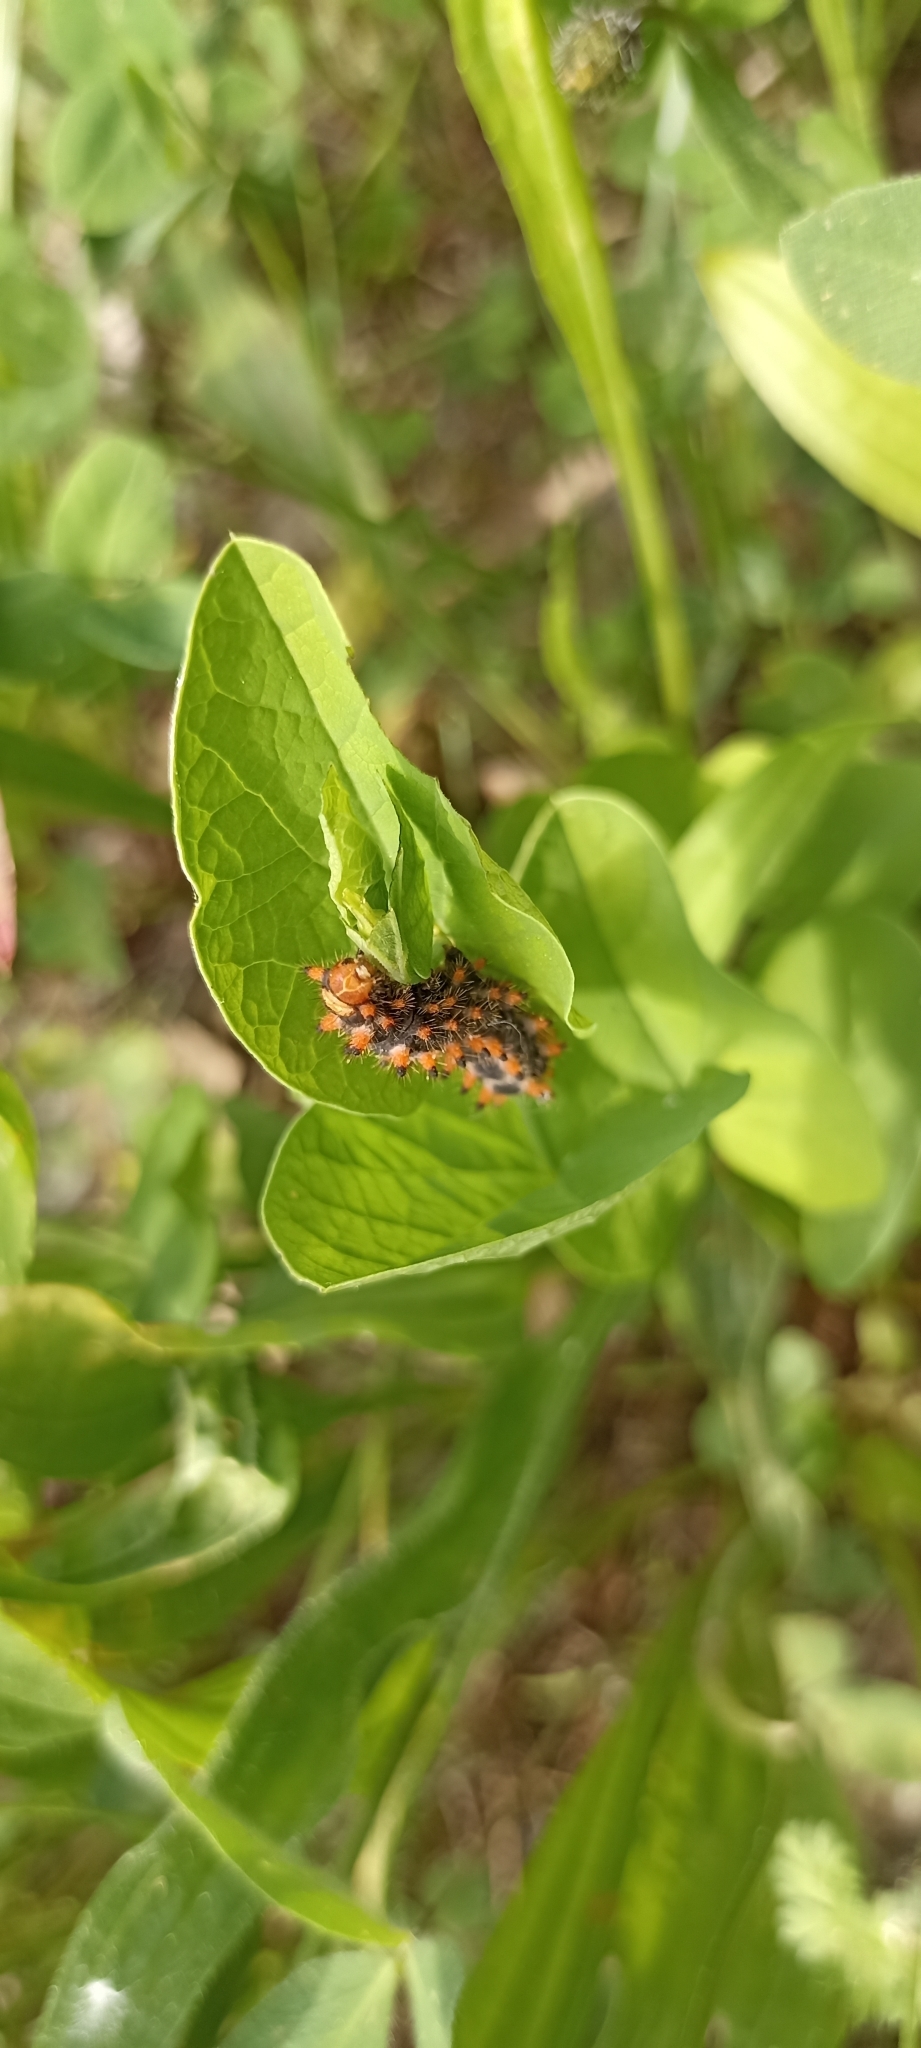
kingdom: Animalia
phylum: Arthropoda
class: Insecta
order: Lepidoptera
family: Papilionidae
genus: Zerynthia
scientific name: Zerynthia polyxena
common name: Southern festoon
